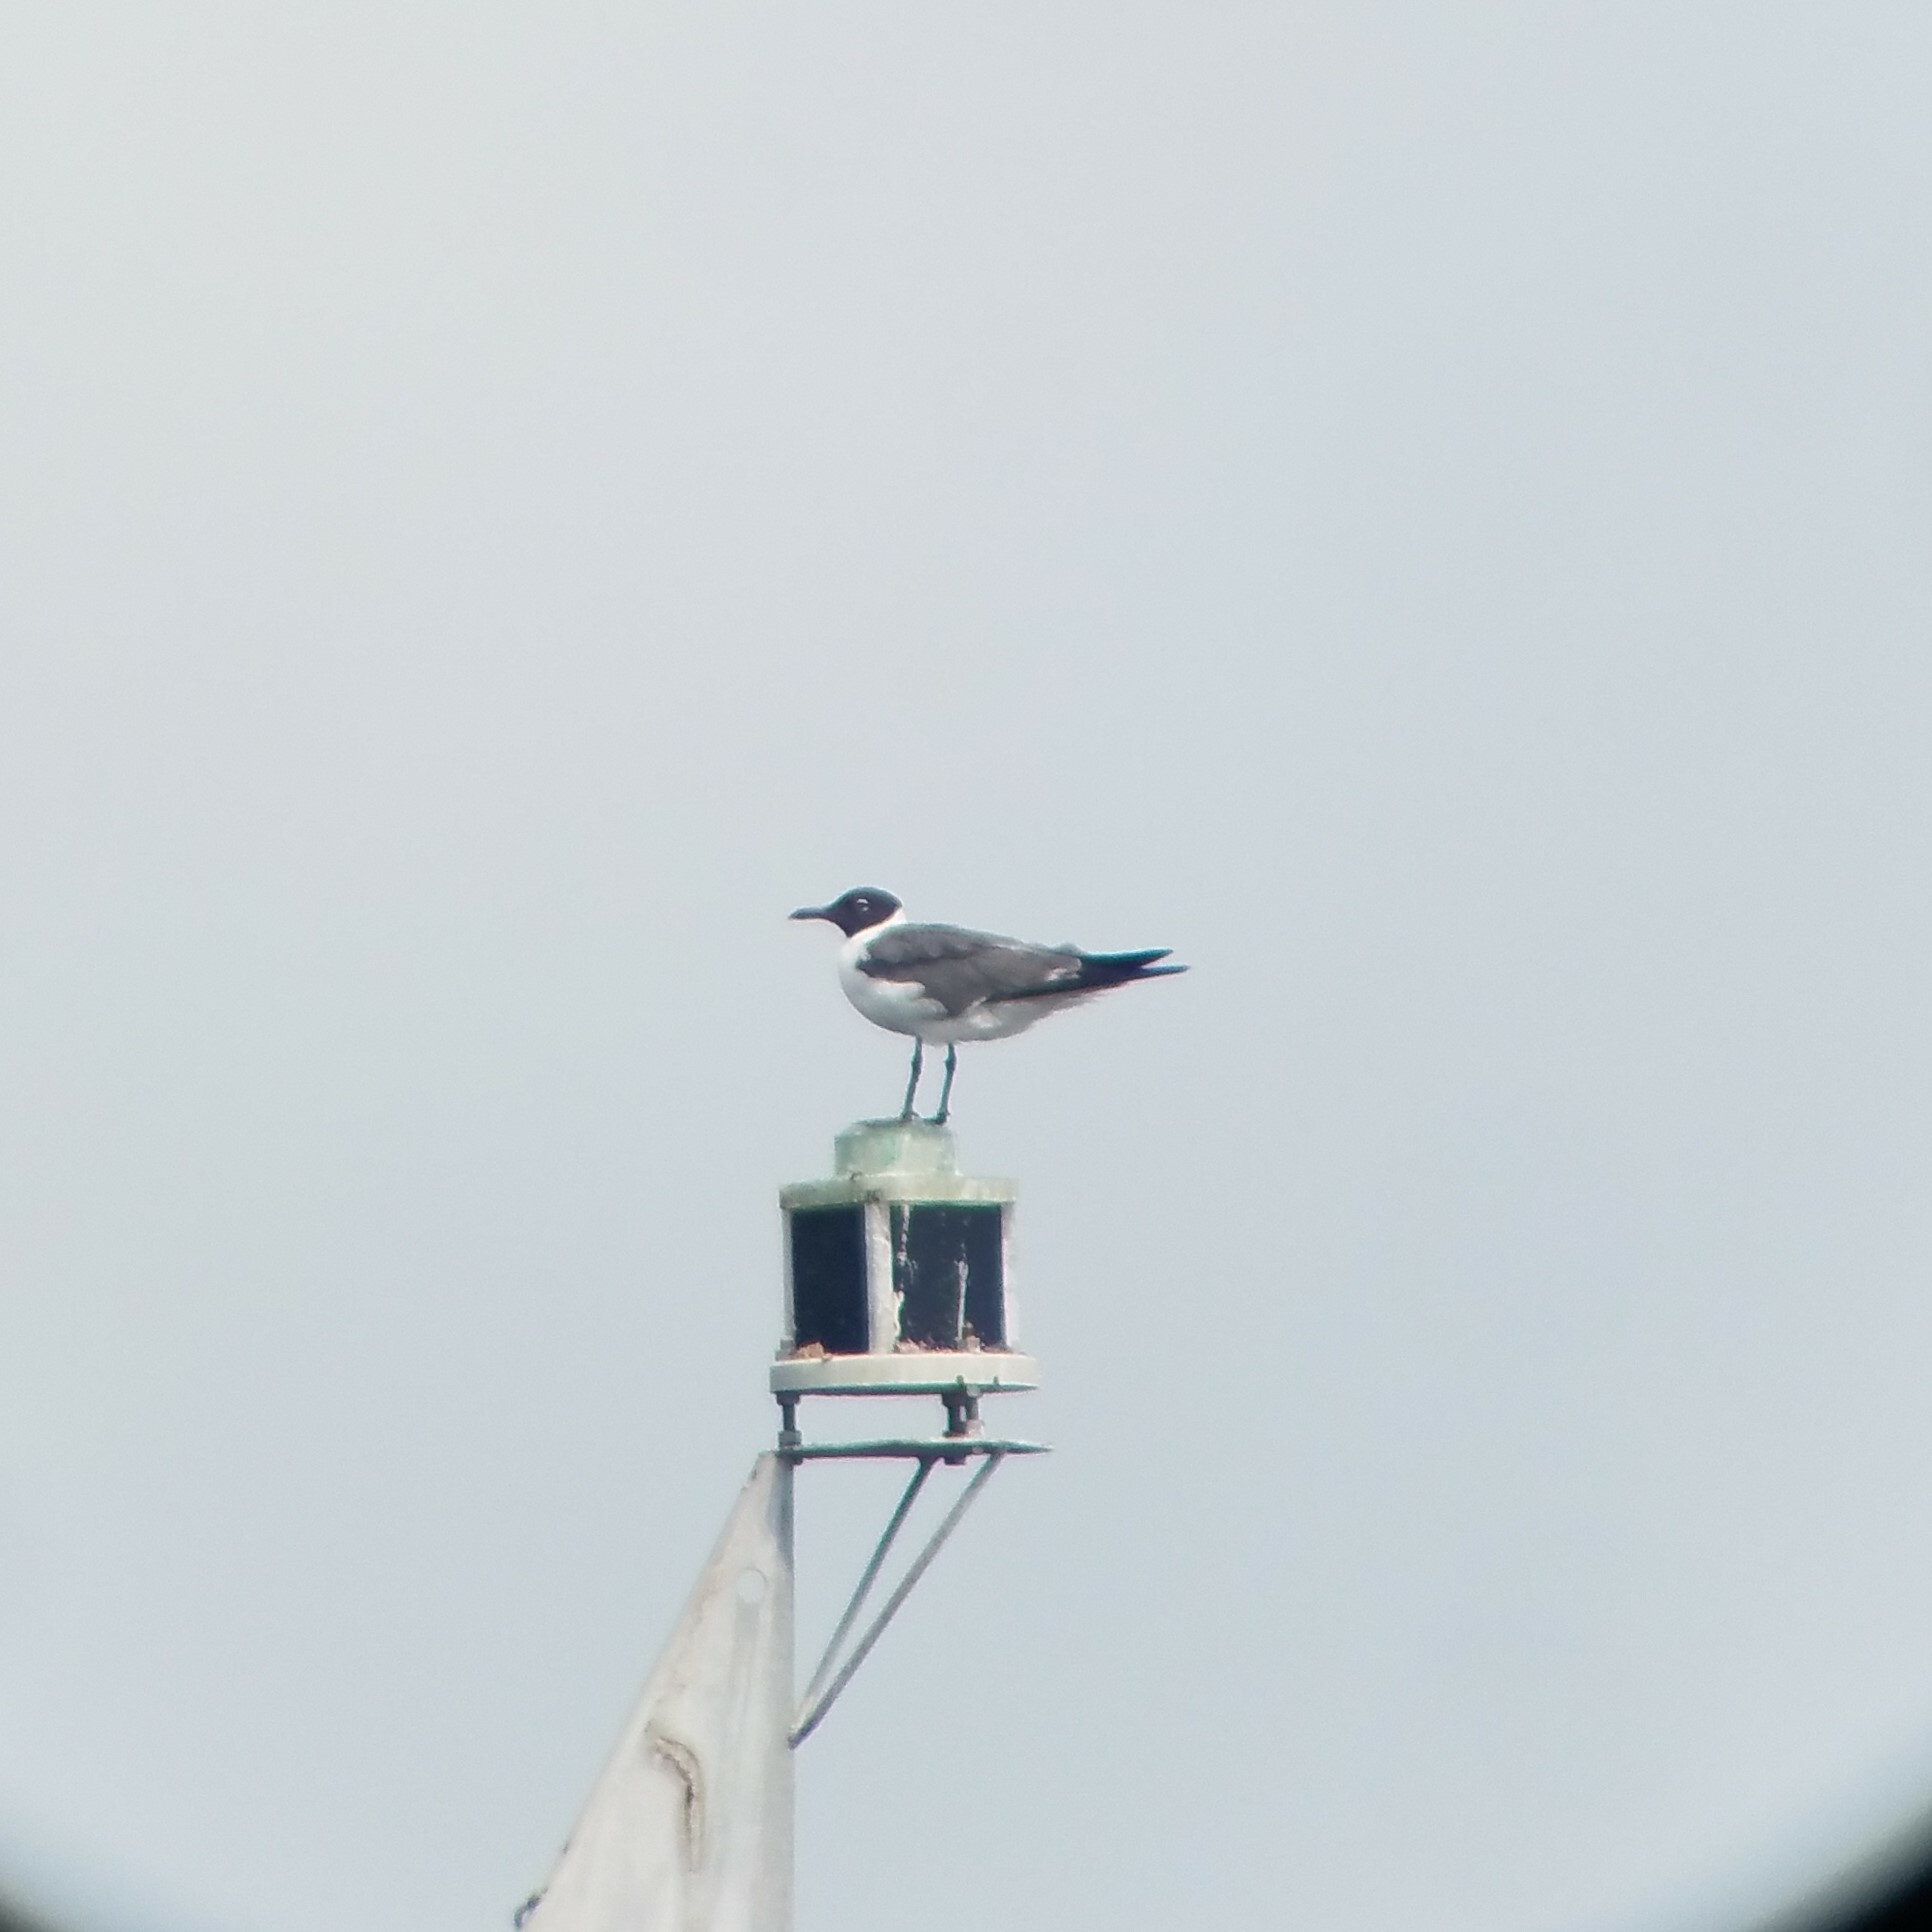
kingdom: Animalia
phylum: Chordata
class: Aves
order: Charadriiformes
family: Laridae
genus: Leucophaeus
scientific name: Leucophaeus atricilla
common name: Laughing gull
